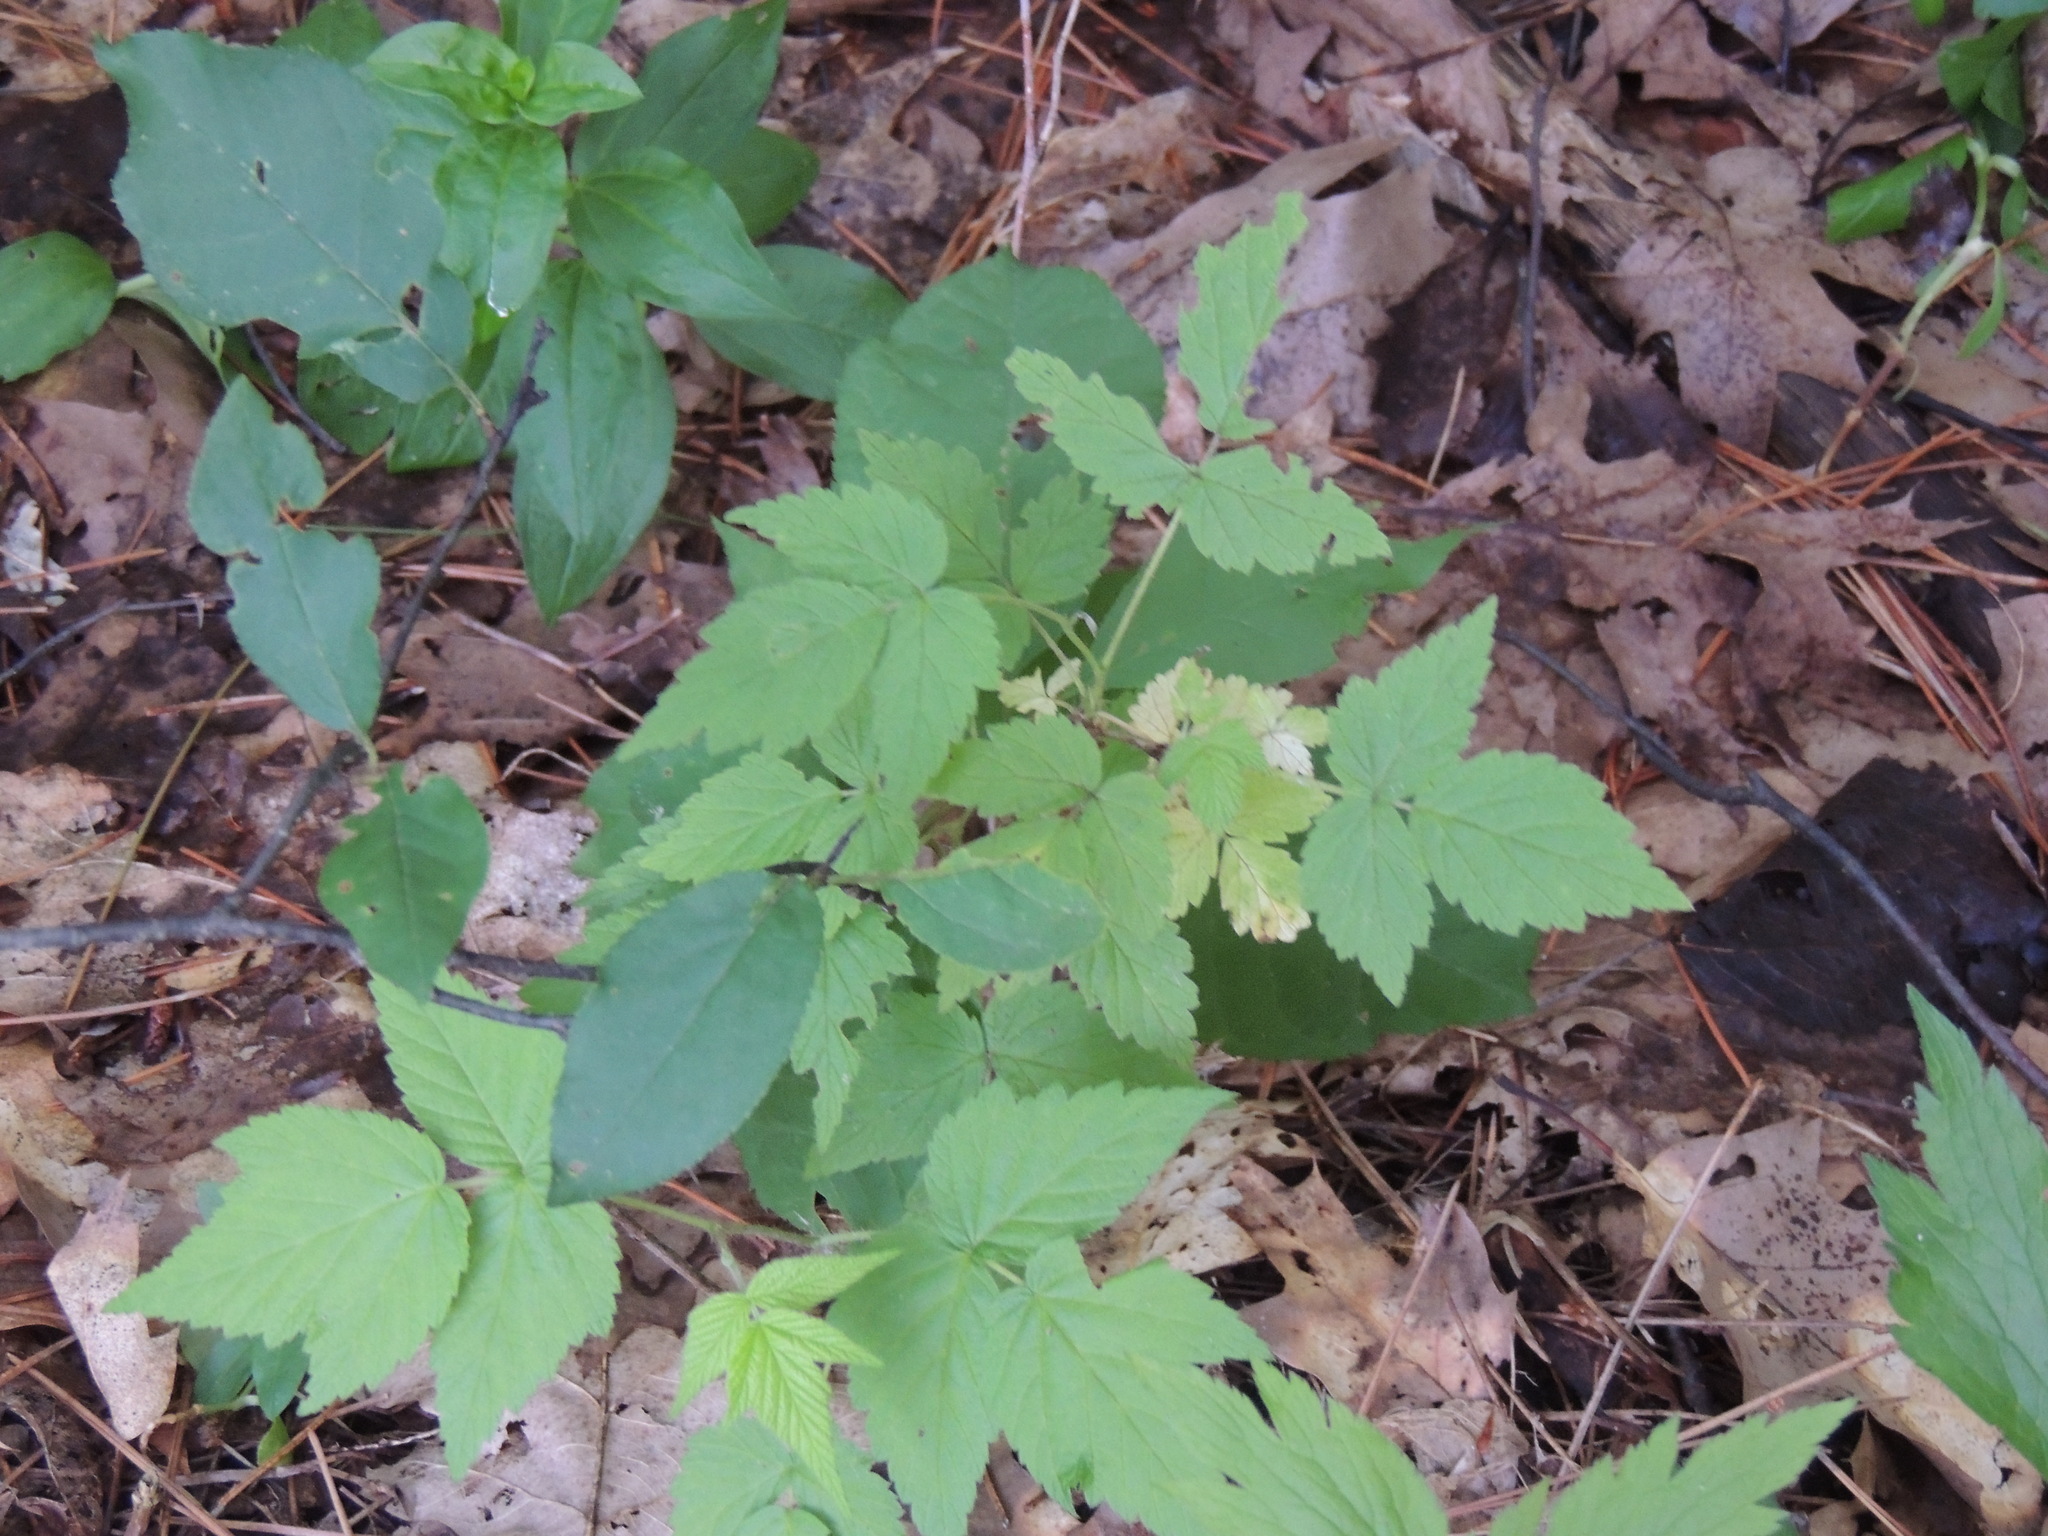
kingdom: Plantae
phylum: Tracheophyta
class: Magnoliopsida
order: Rosales
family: Rosaceae
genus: Rubus
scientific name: Rubus idaeus
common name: Raspberry
